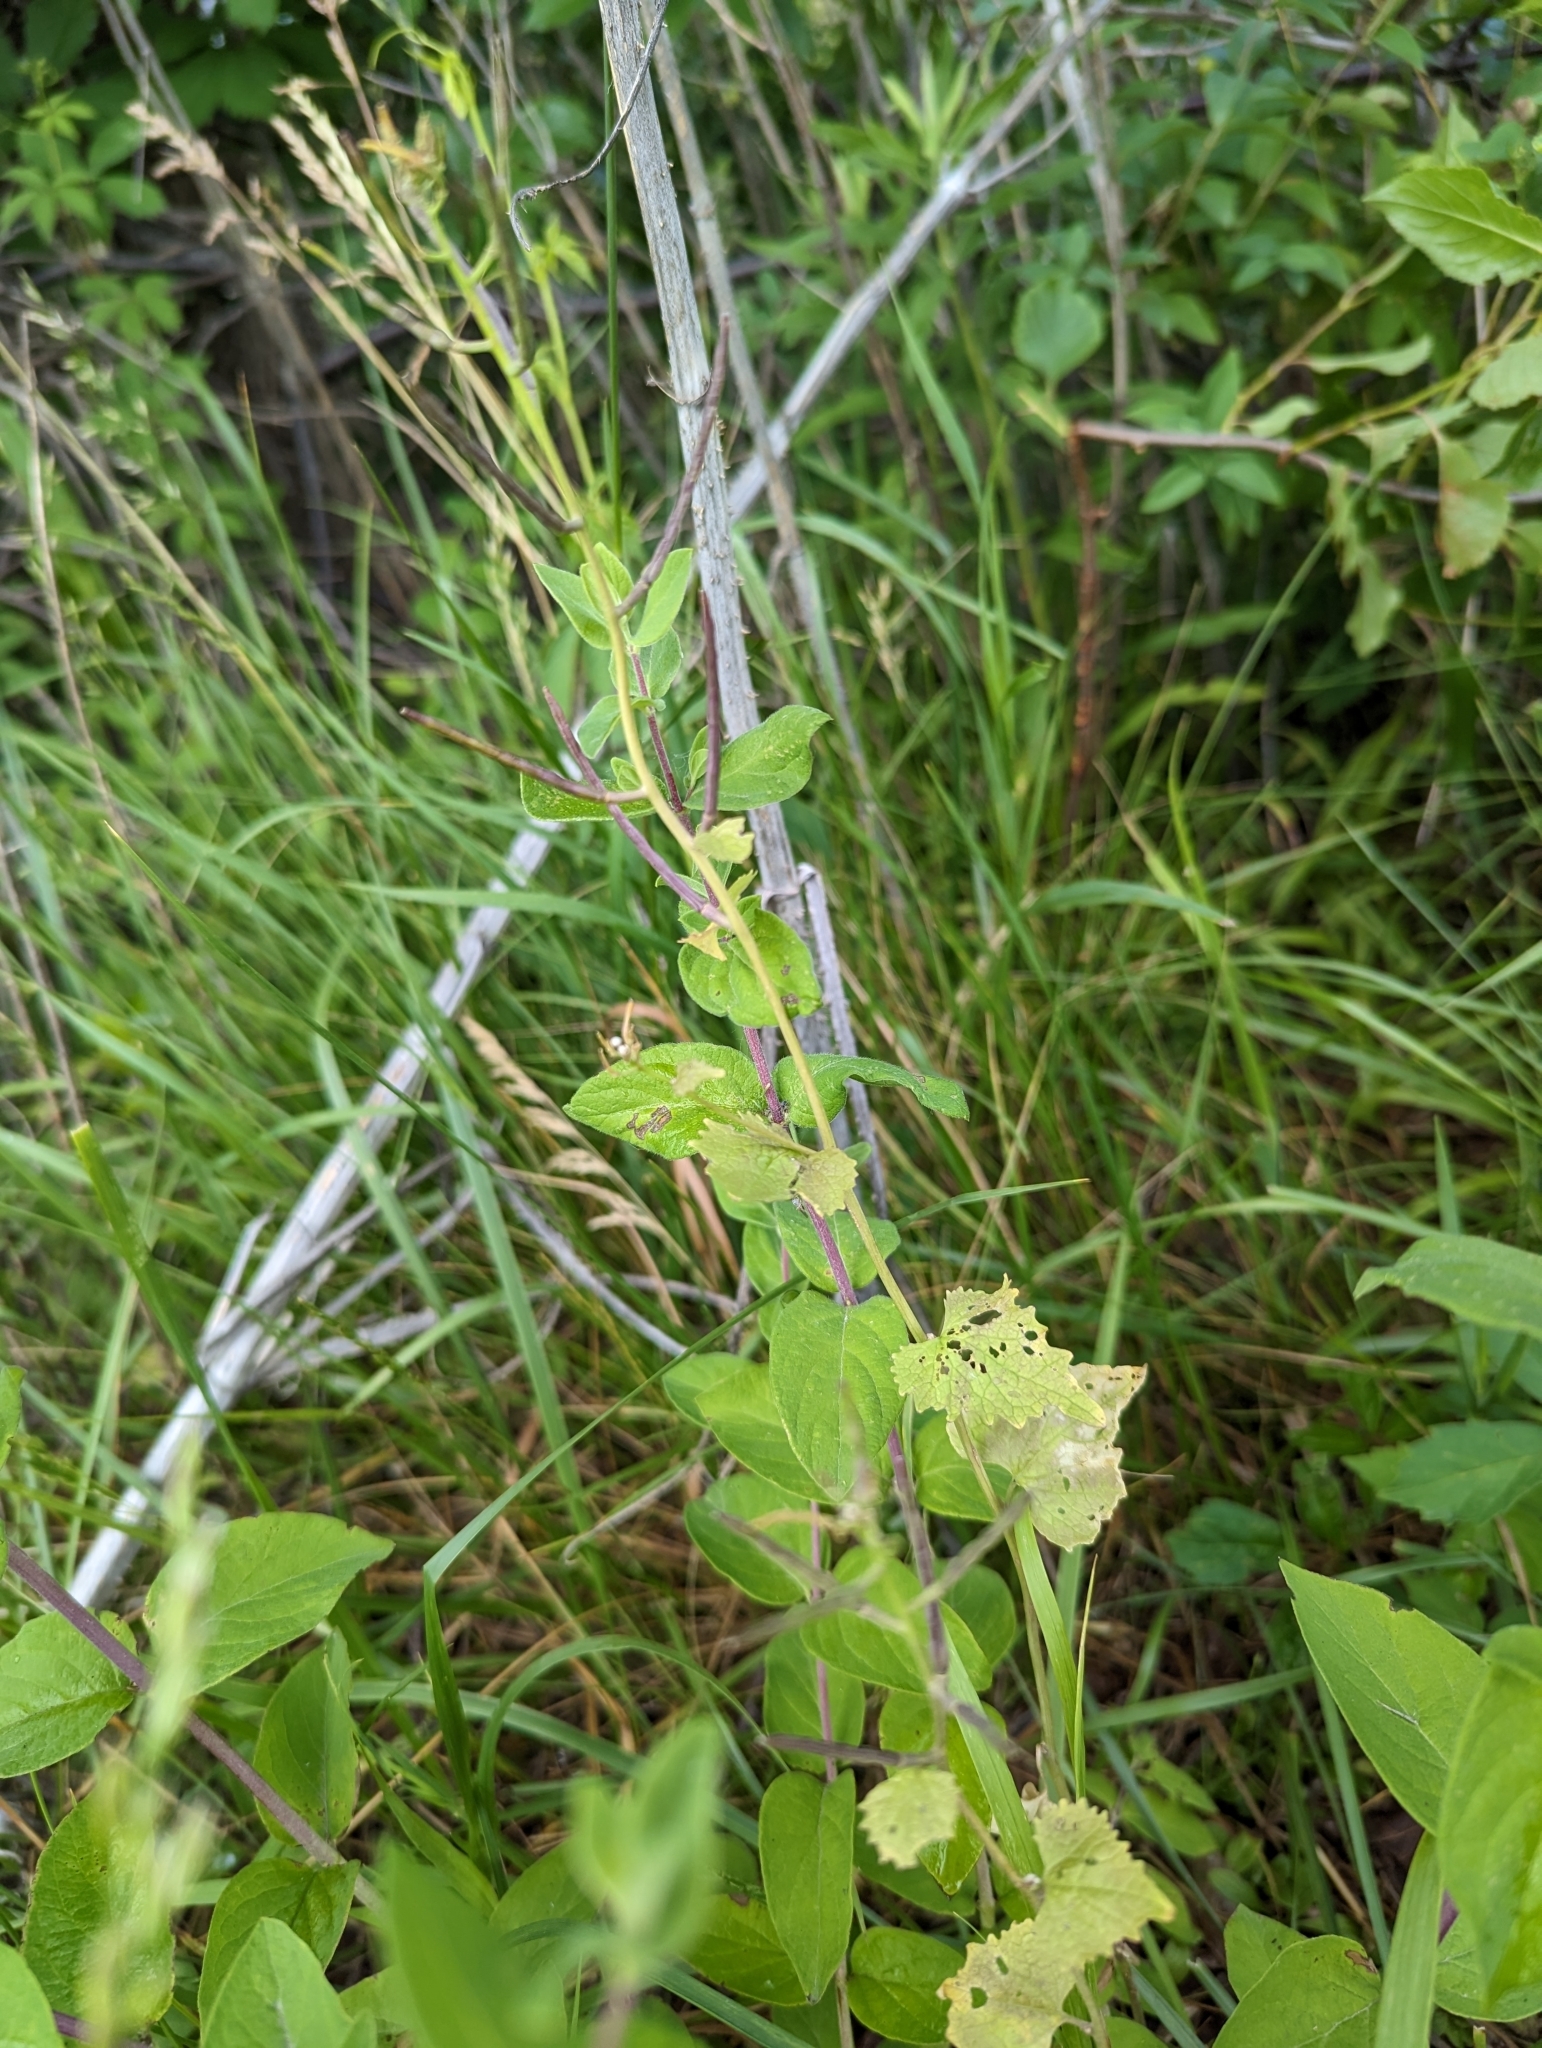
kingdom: Plantae
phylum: Tracheophyta
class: Magnoliopsida
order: Brassicales
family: Brassicaceae
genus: Alliaria
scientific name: Alliaria petiolata
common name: Garlic mustard
